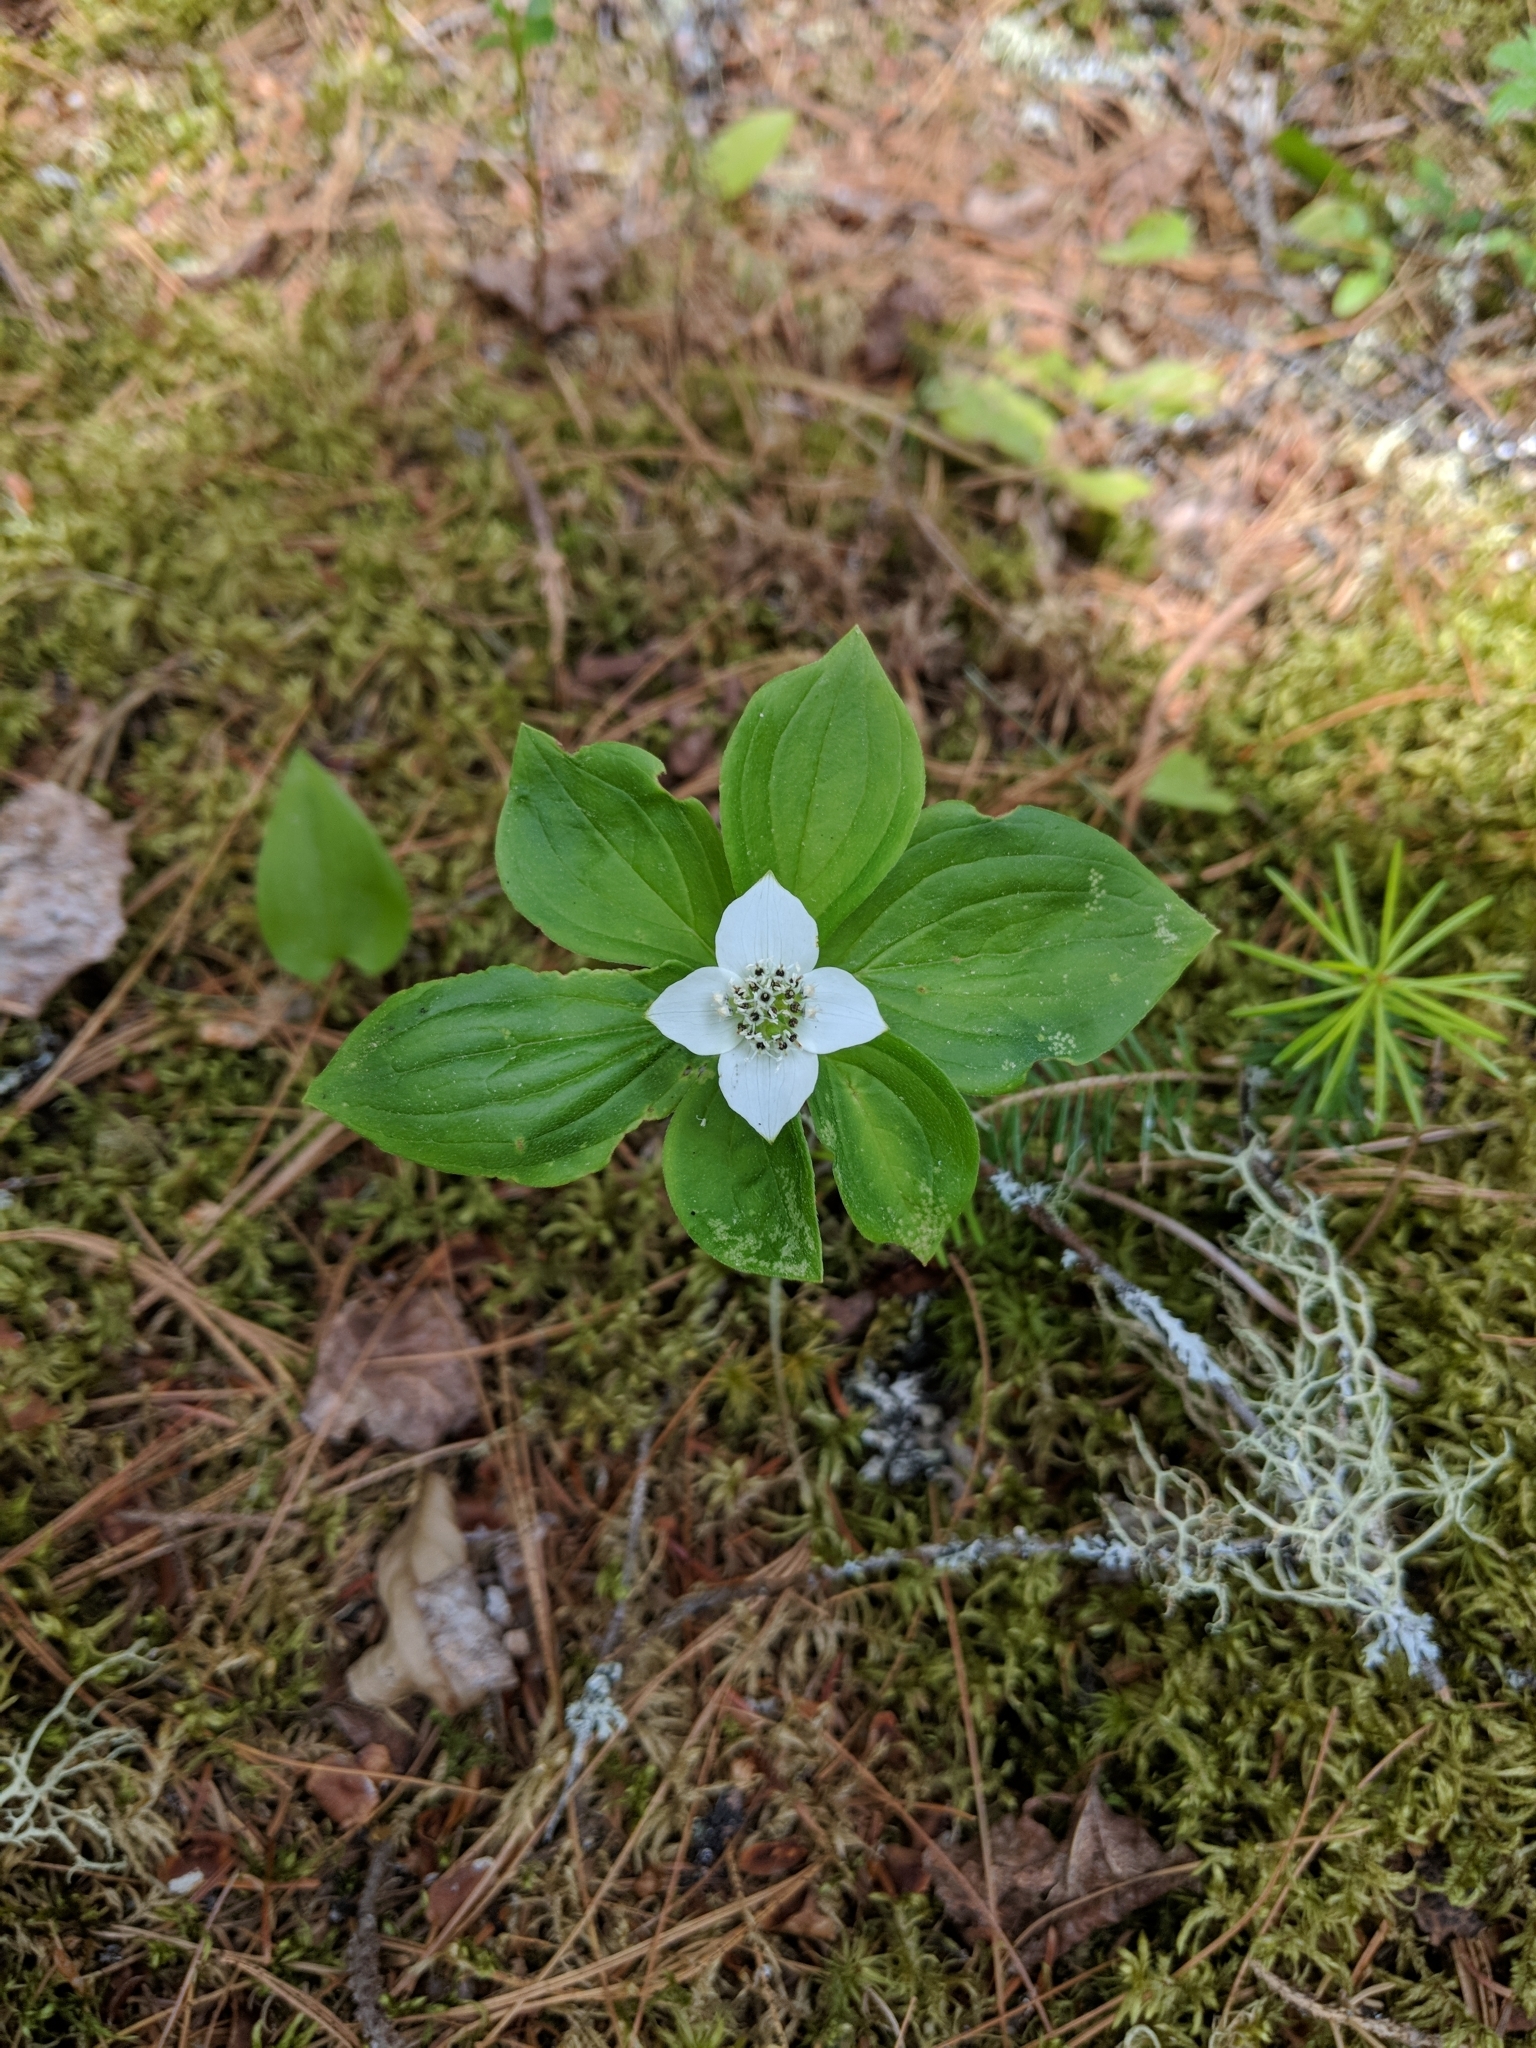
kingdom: Plantae
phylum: Tracheophyta
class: Magnoliopsida
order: Cornales
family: Cornaceae
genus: Cornus
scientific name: Cornus canadensis
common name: Creeping dogwood
